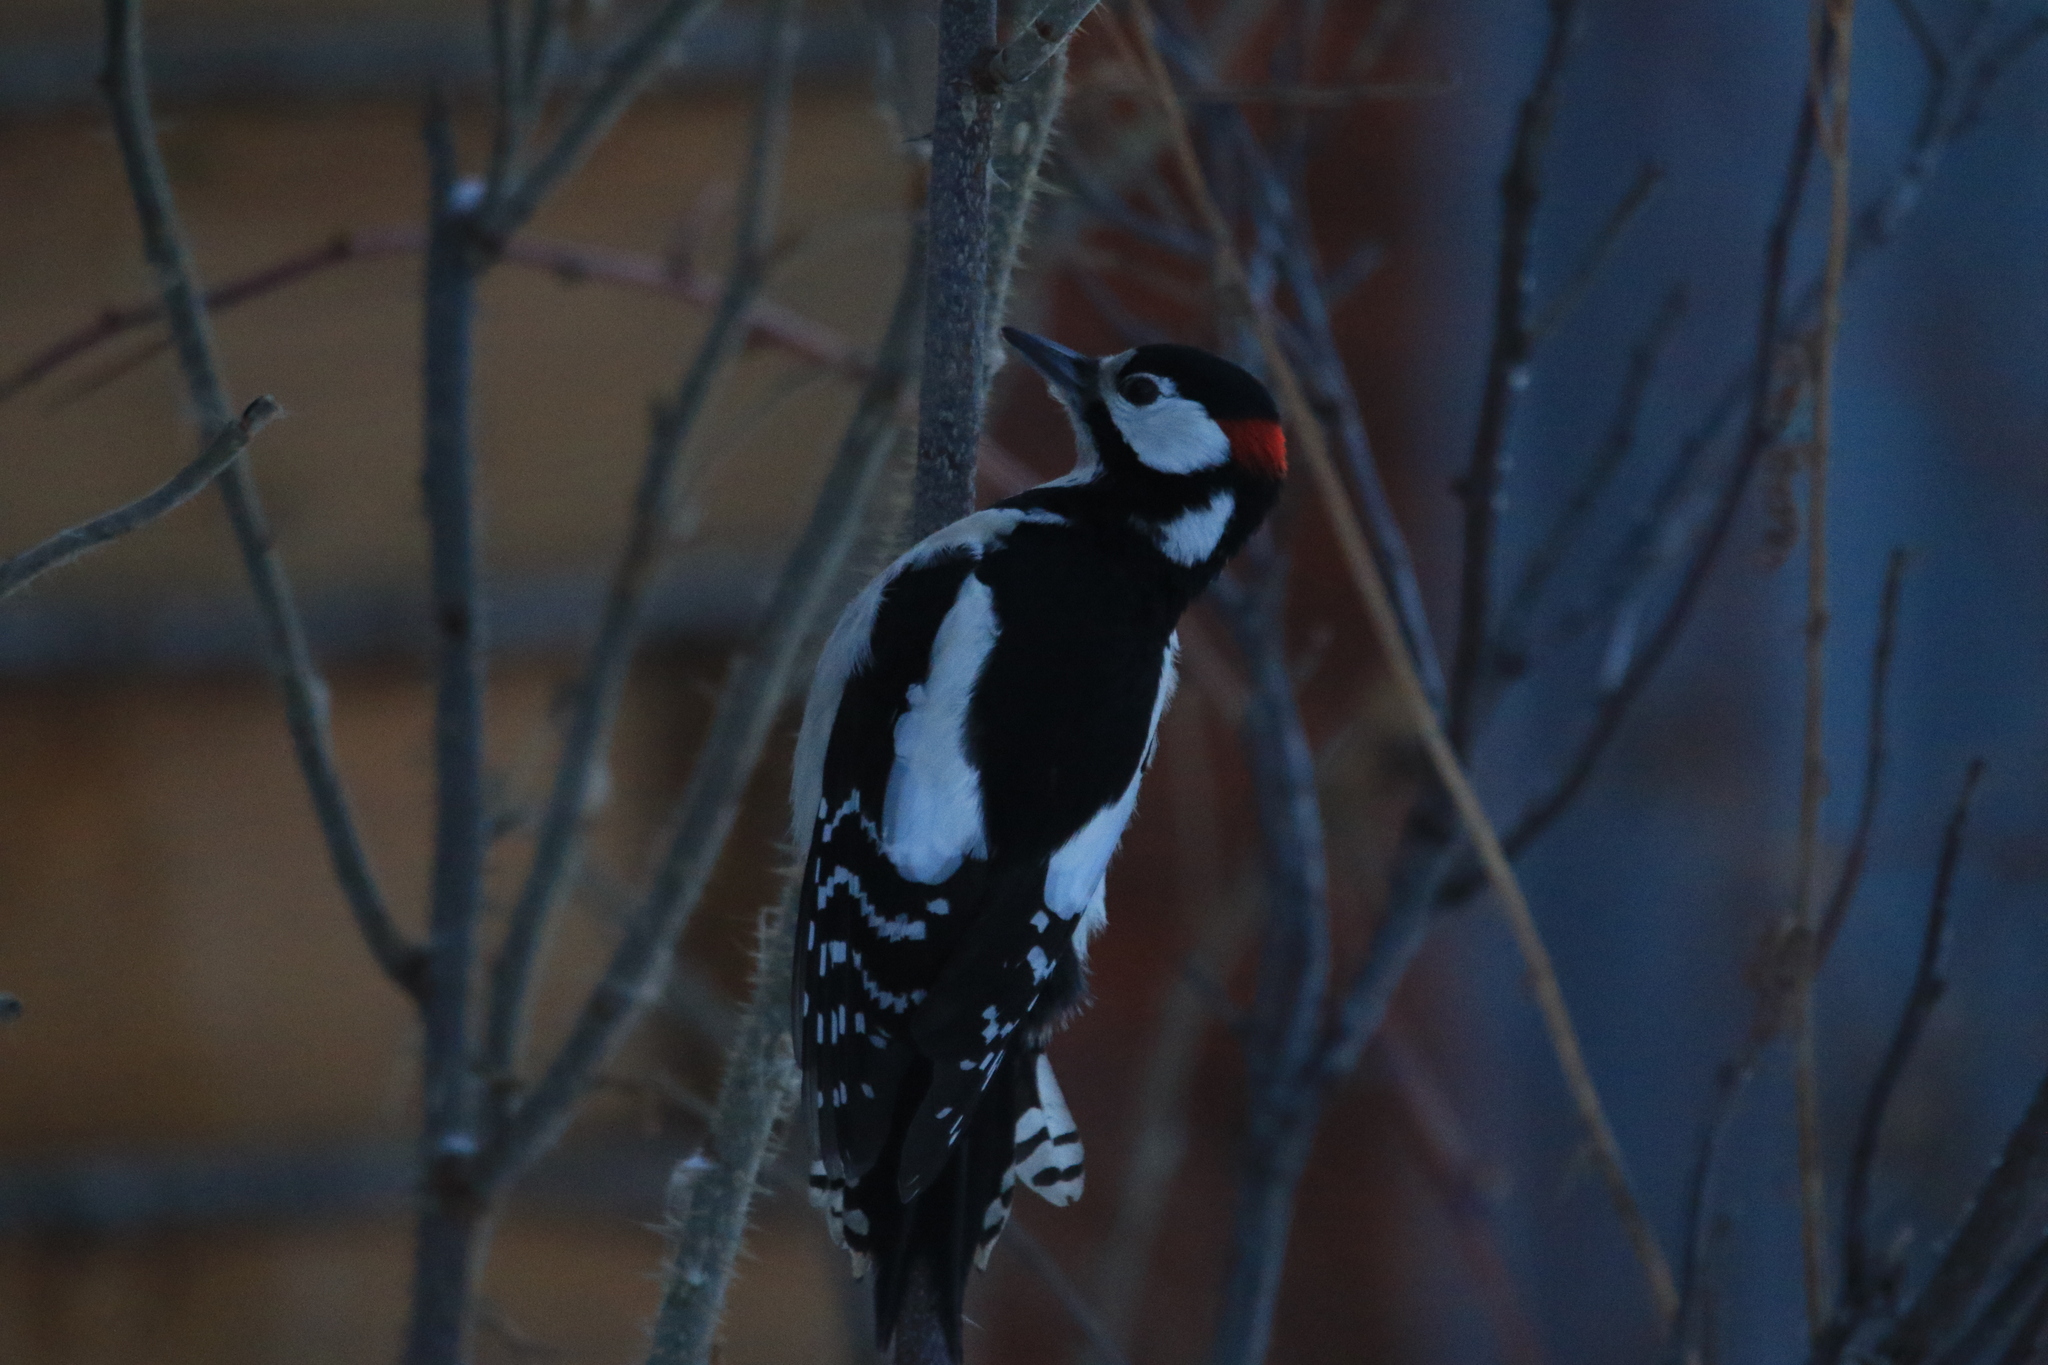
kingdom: Animalia
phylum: Chordata
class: Aves
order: Piciformes
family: Picidae
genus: Dendrocopos
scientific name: Dendrocopos major
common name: Great spotted woodpecker
